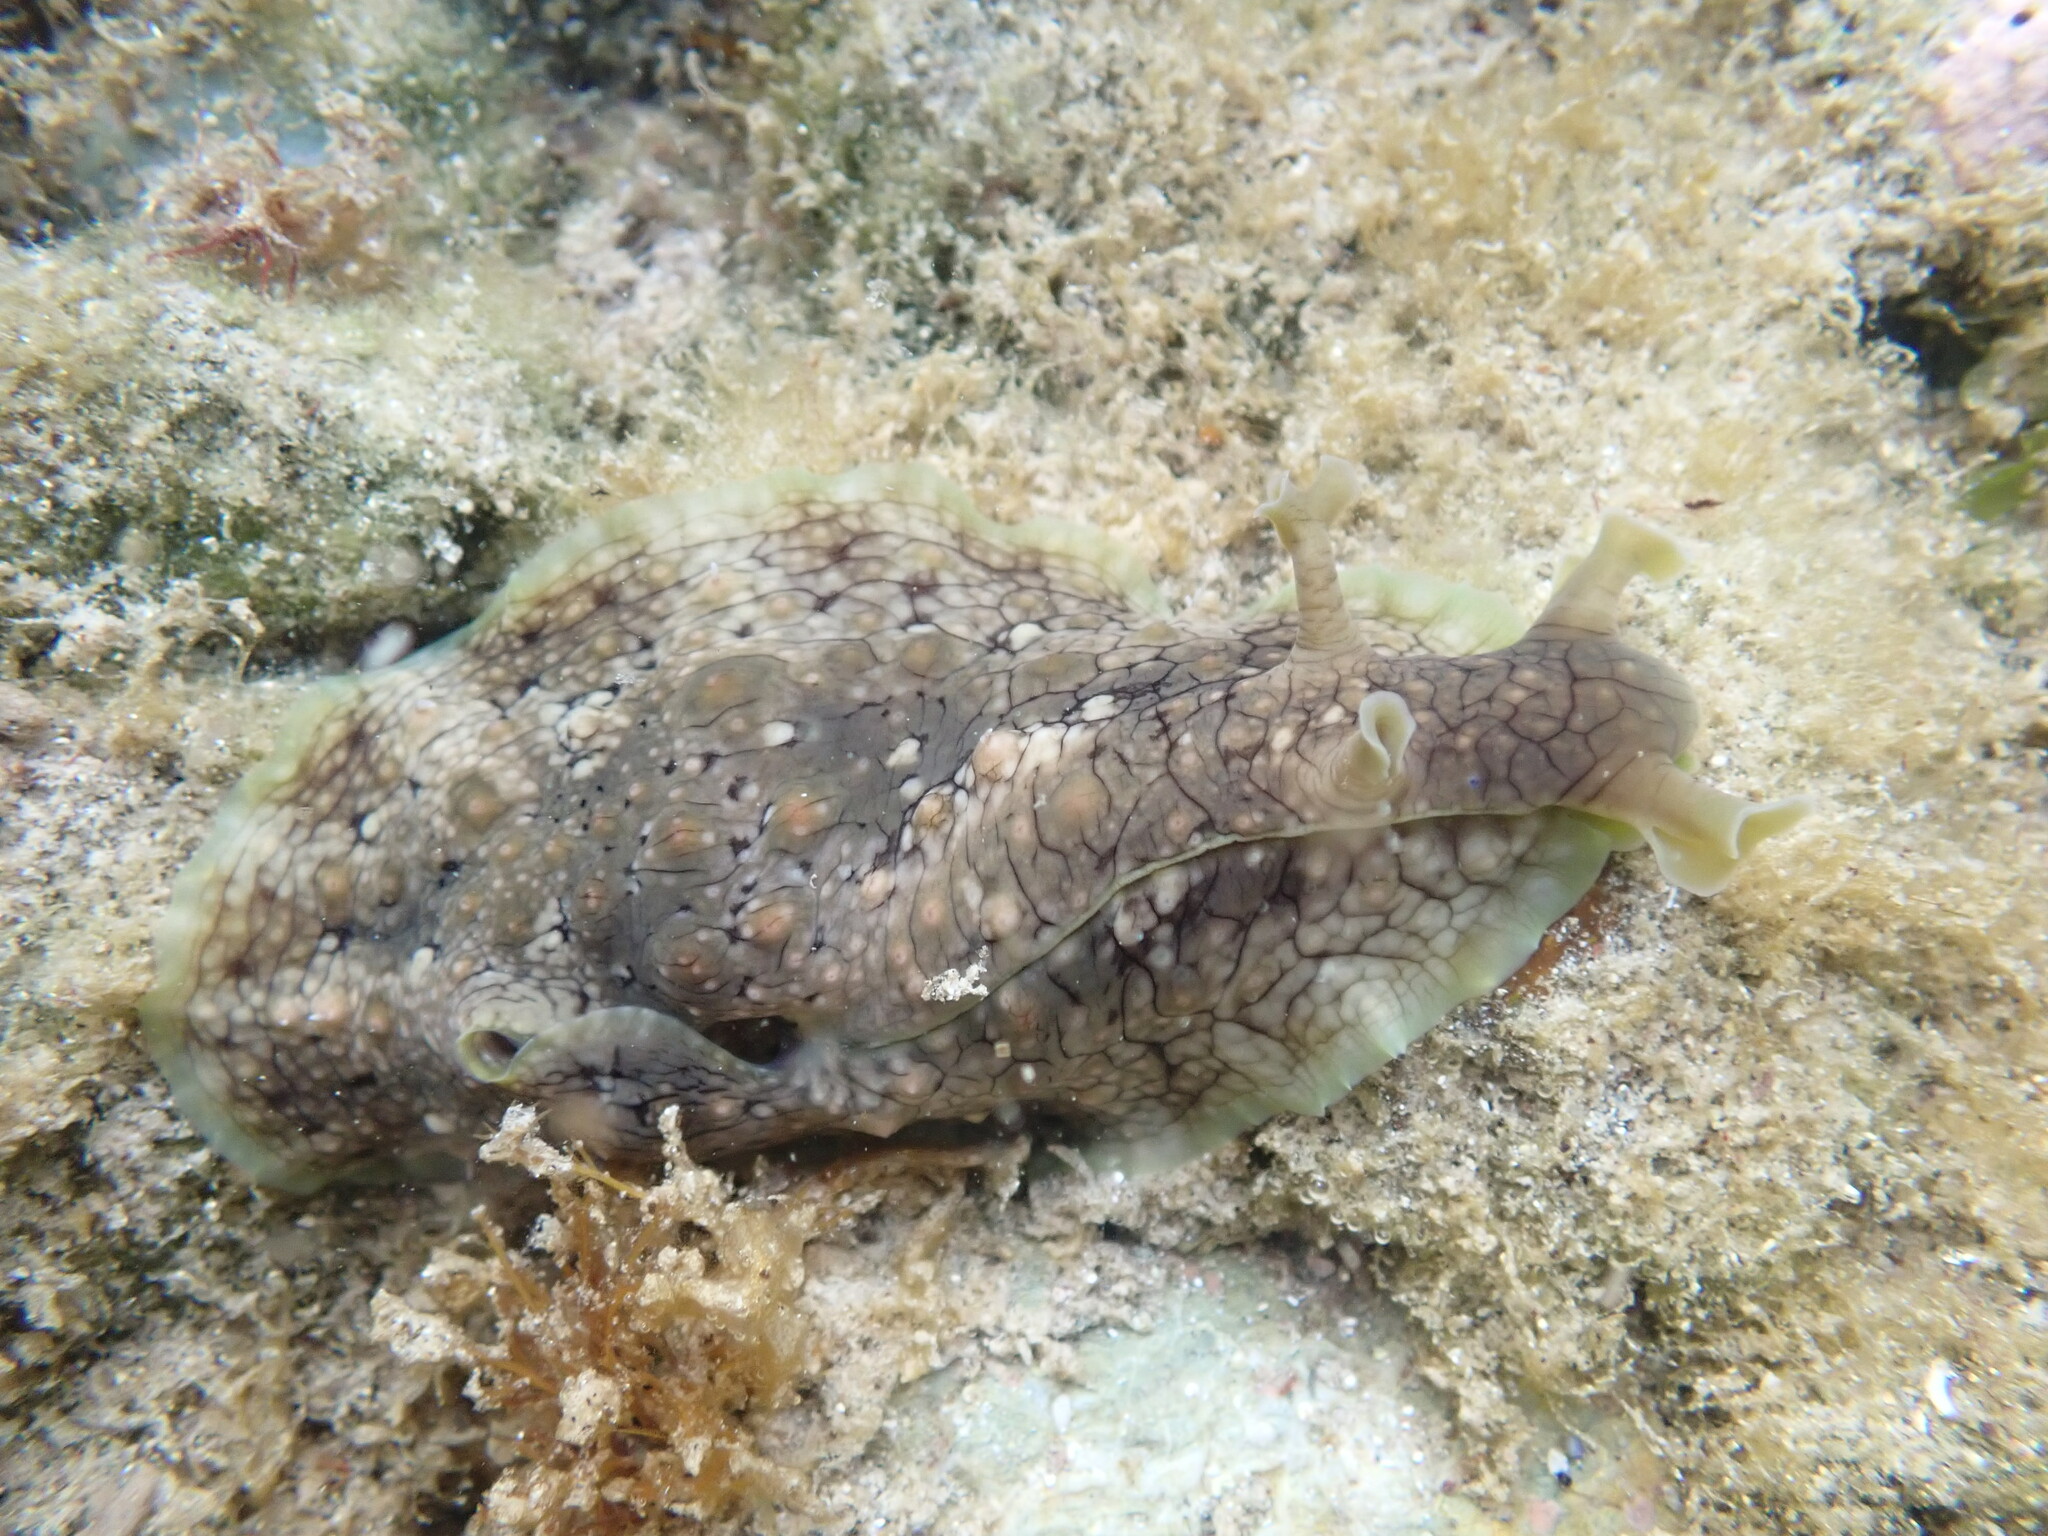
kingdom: Animalia
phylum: Mollusca
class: Gastropoda
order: Aplysiida
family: Aplysiidae
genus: Dolabrifera
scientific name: Dolabrifera brazieri
